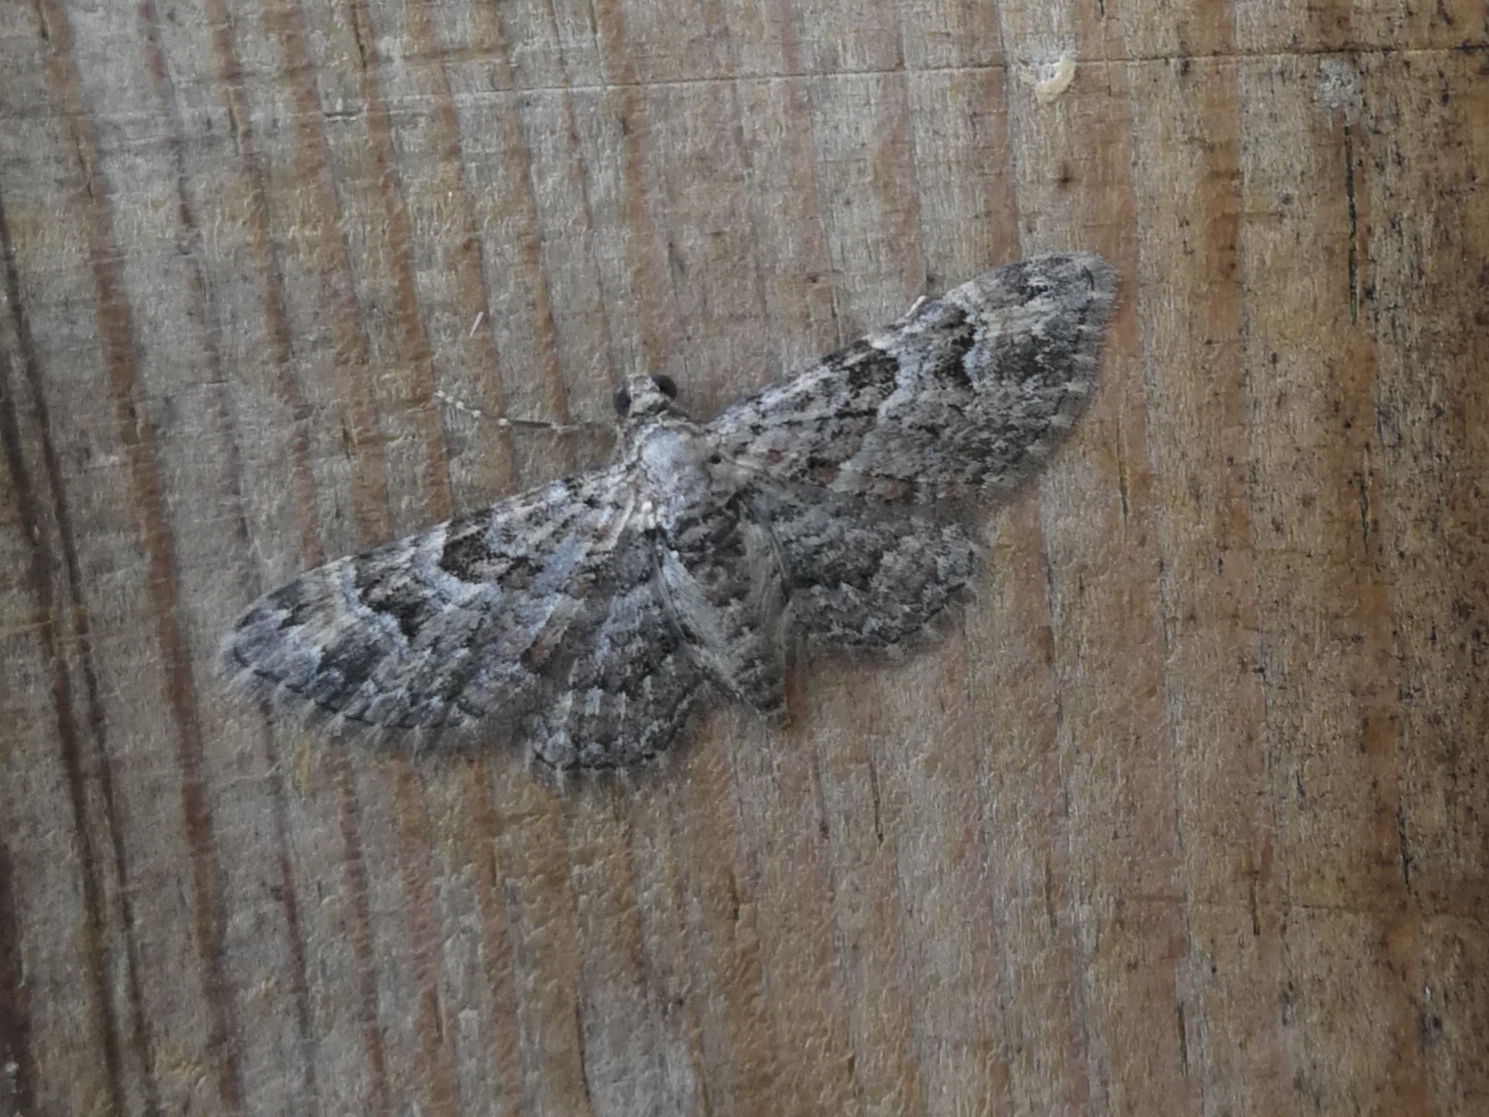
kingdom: Animalia
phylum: Arthropoda
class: Insecta
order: Lepidoptera
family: Geometridae
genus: Gymnoscelis
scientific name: Gymnoscelis rufifasciata
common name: Double-striped pug
